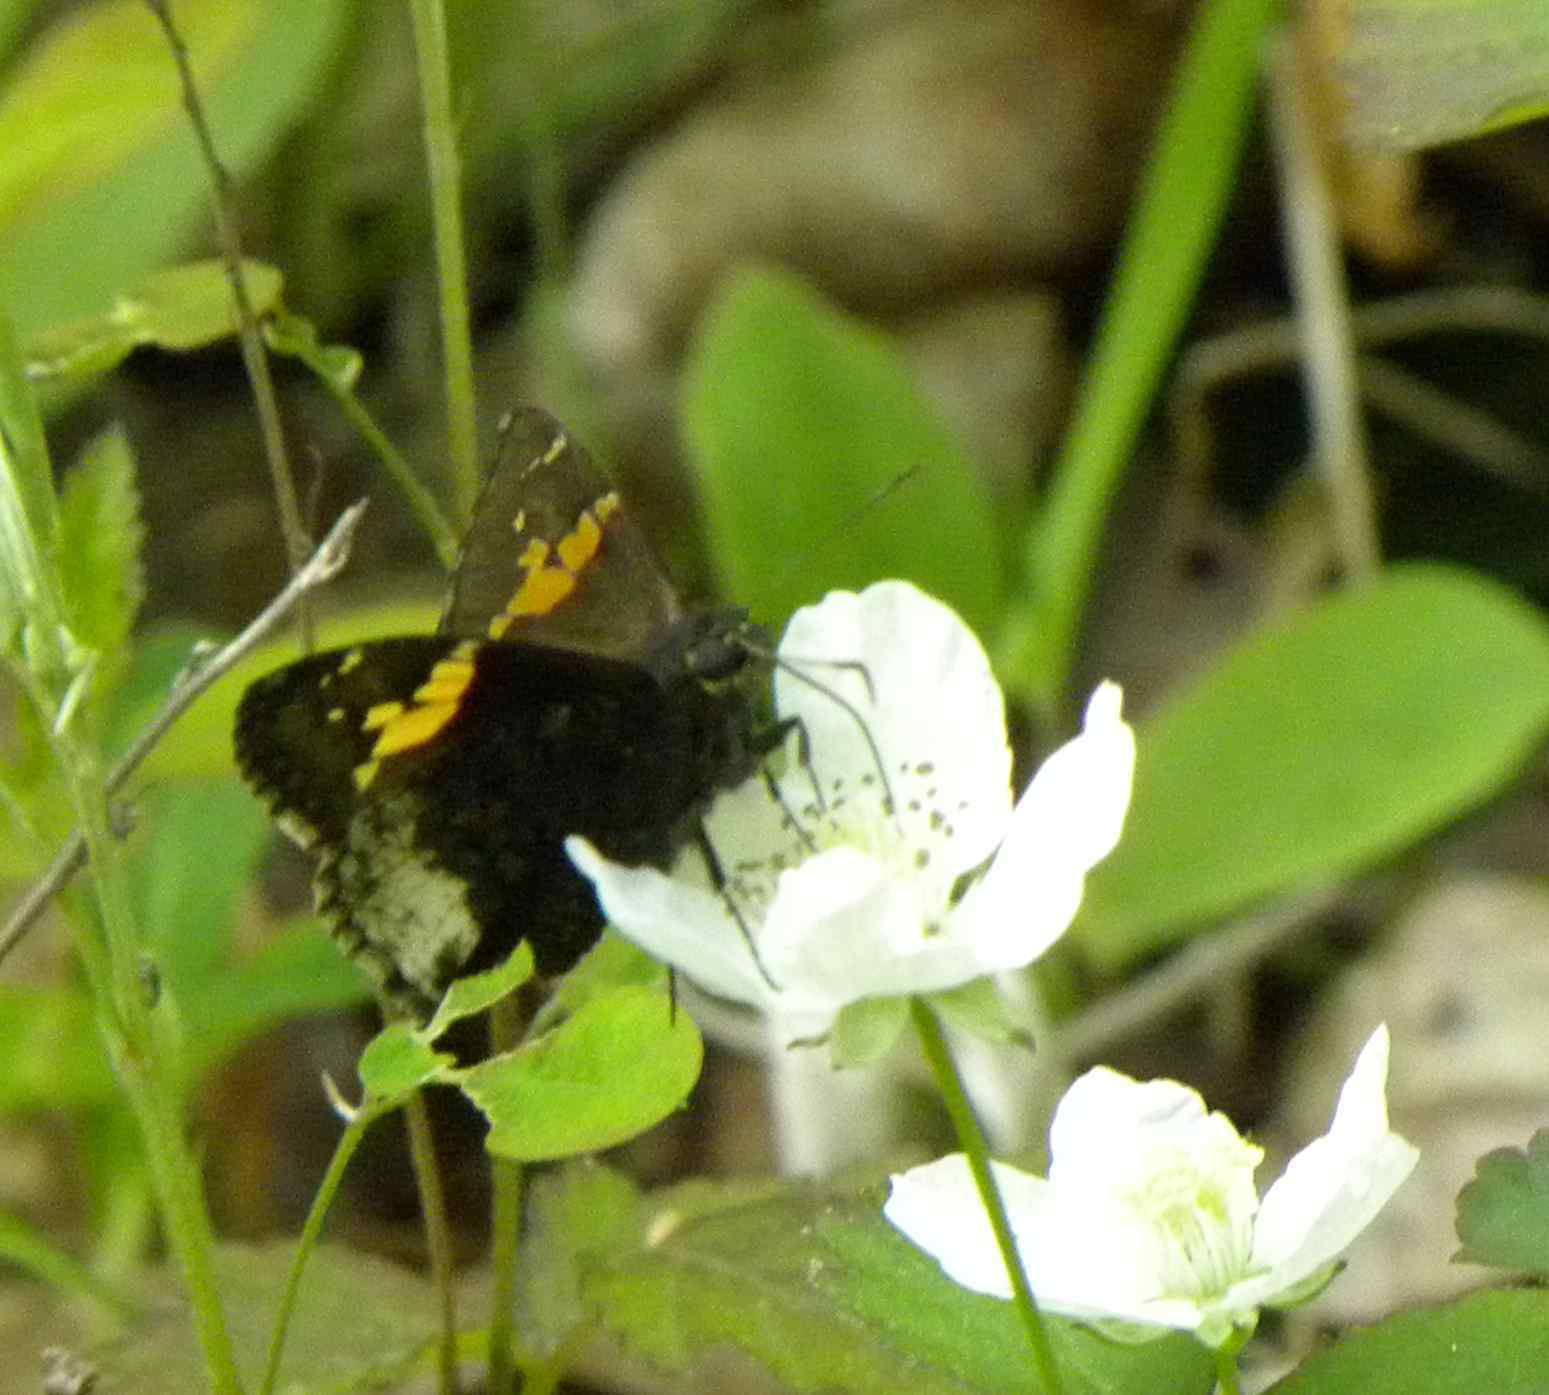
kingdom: Animalia
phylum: Arthropoda
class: Insecta
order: Lepidoptera
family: Hesperiidae
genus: Thorybes
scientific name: Thorybes lyciades
